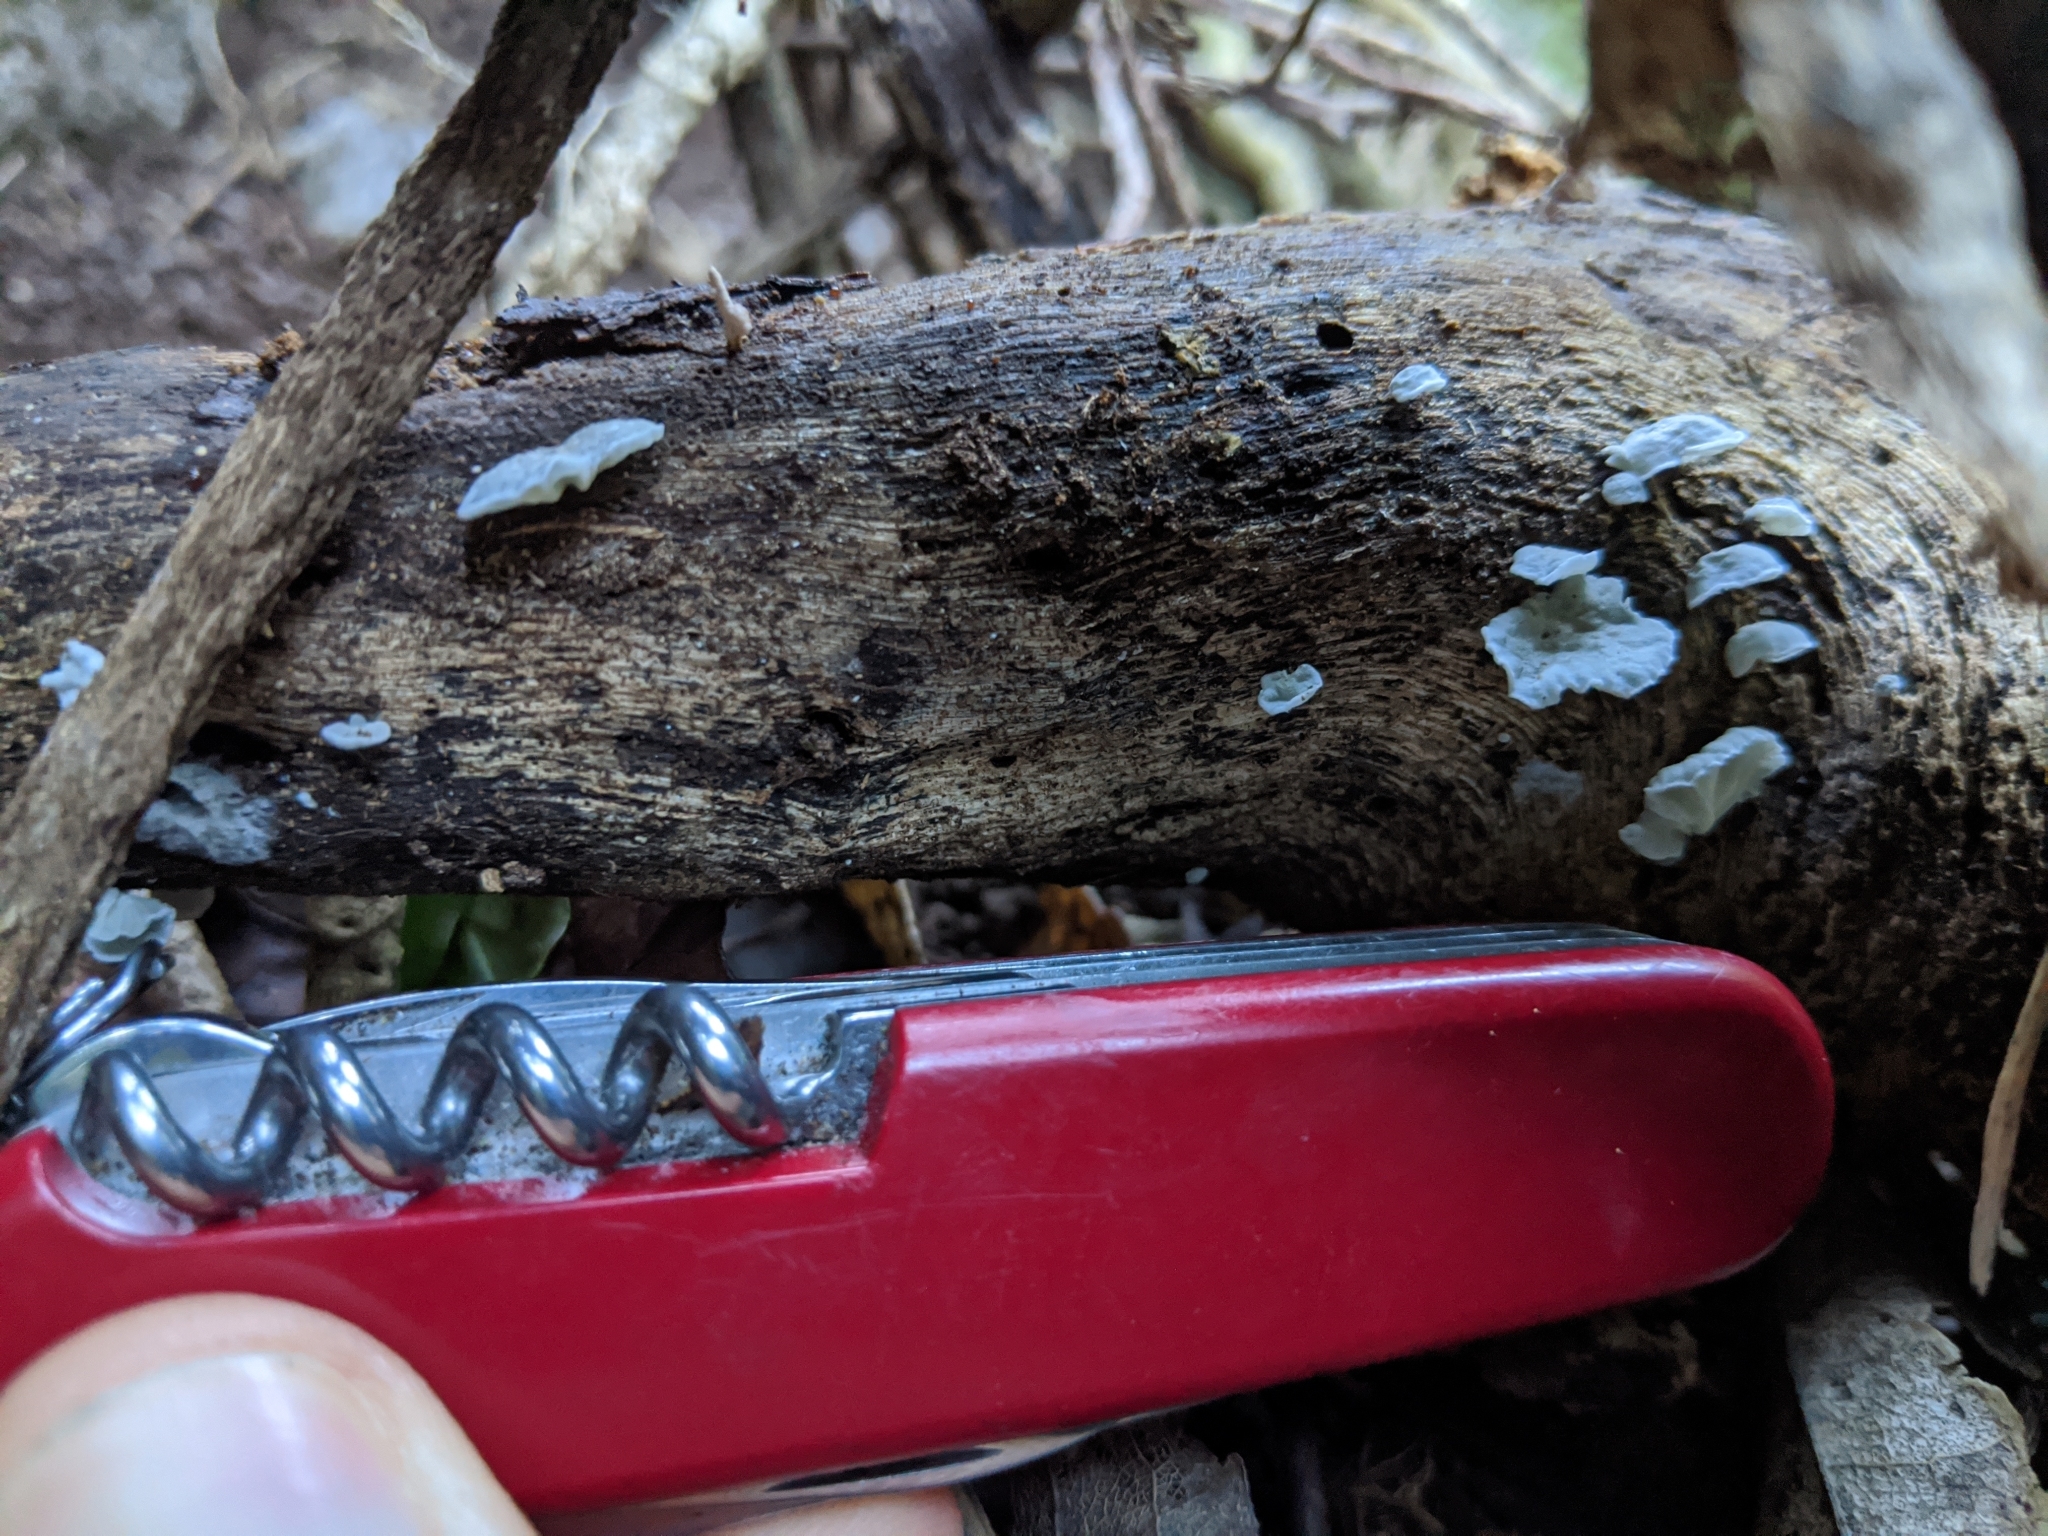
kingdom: Fungi
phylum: Basidiomycota
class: Agaricomycetes
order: Agaricales
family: Marasmiaceae
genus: Campanella
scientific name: Campanella tristis
